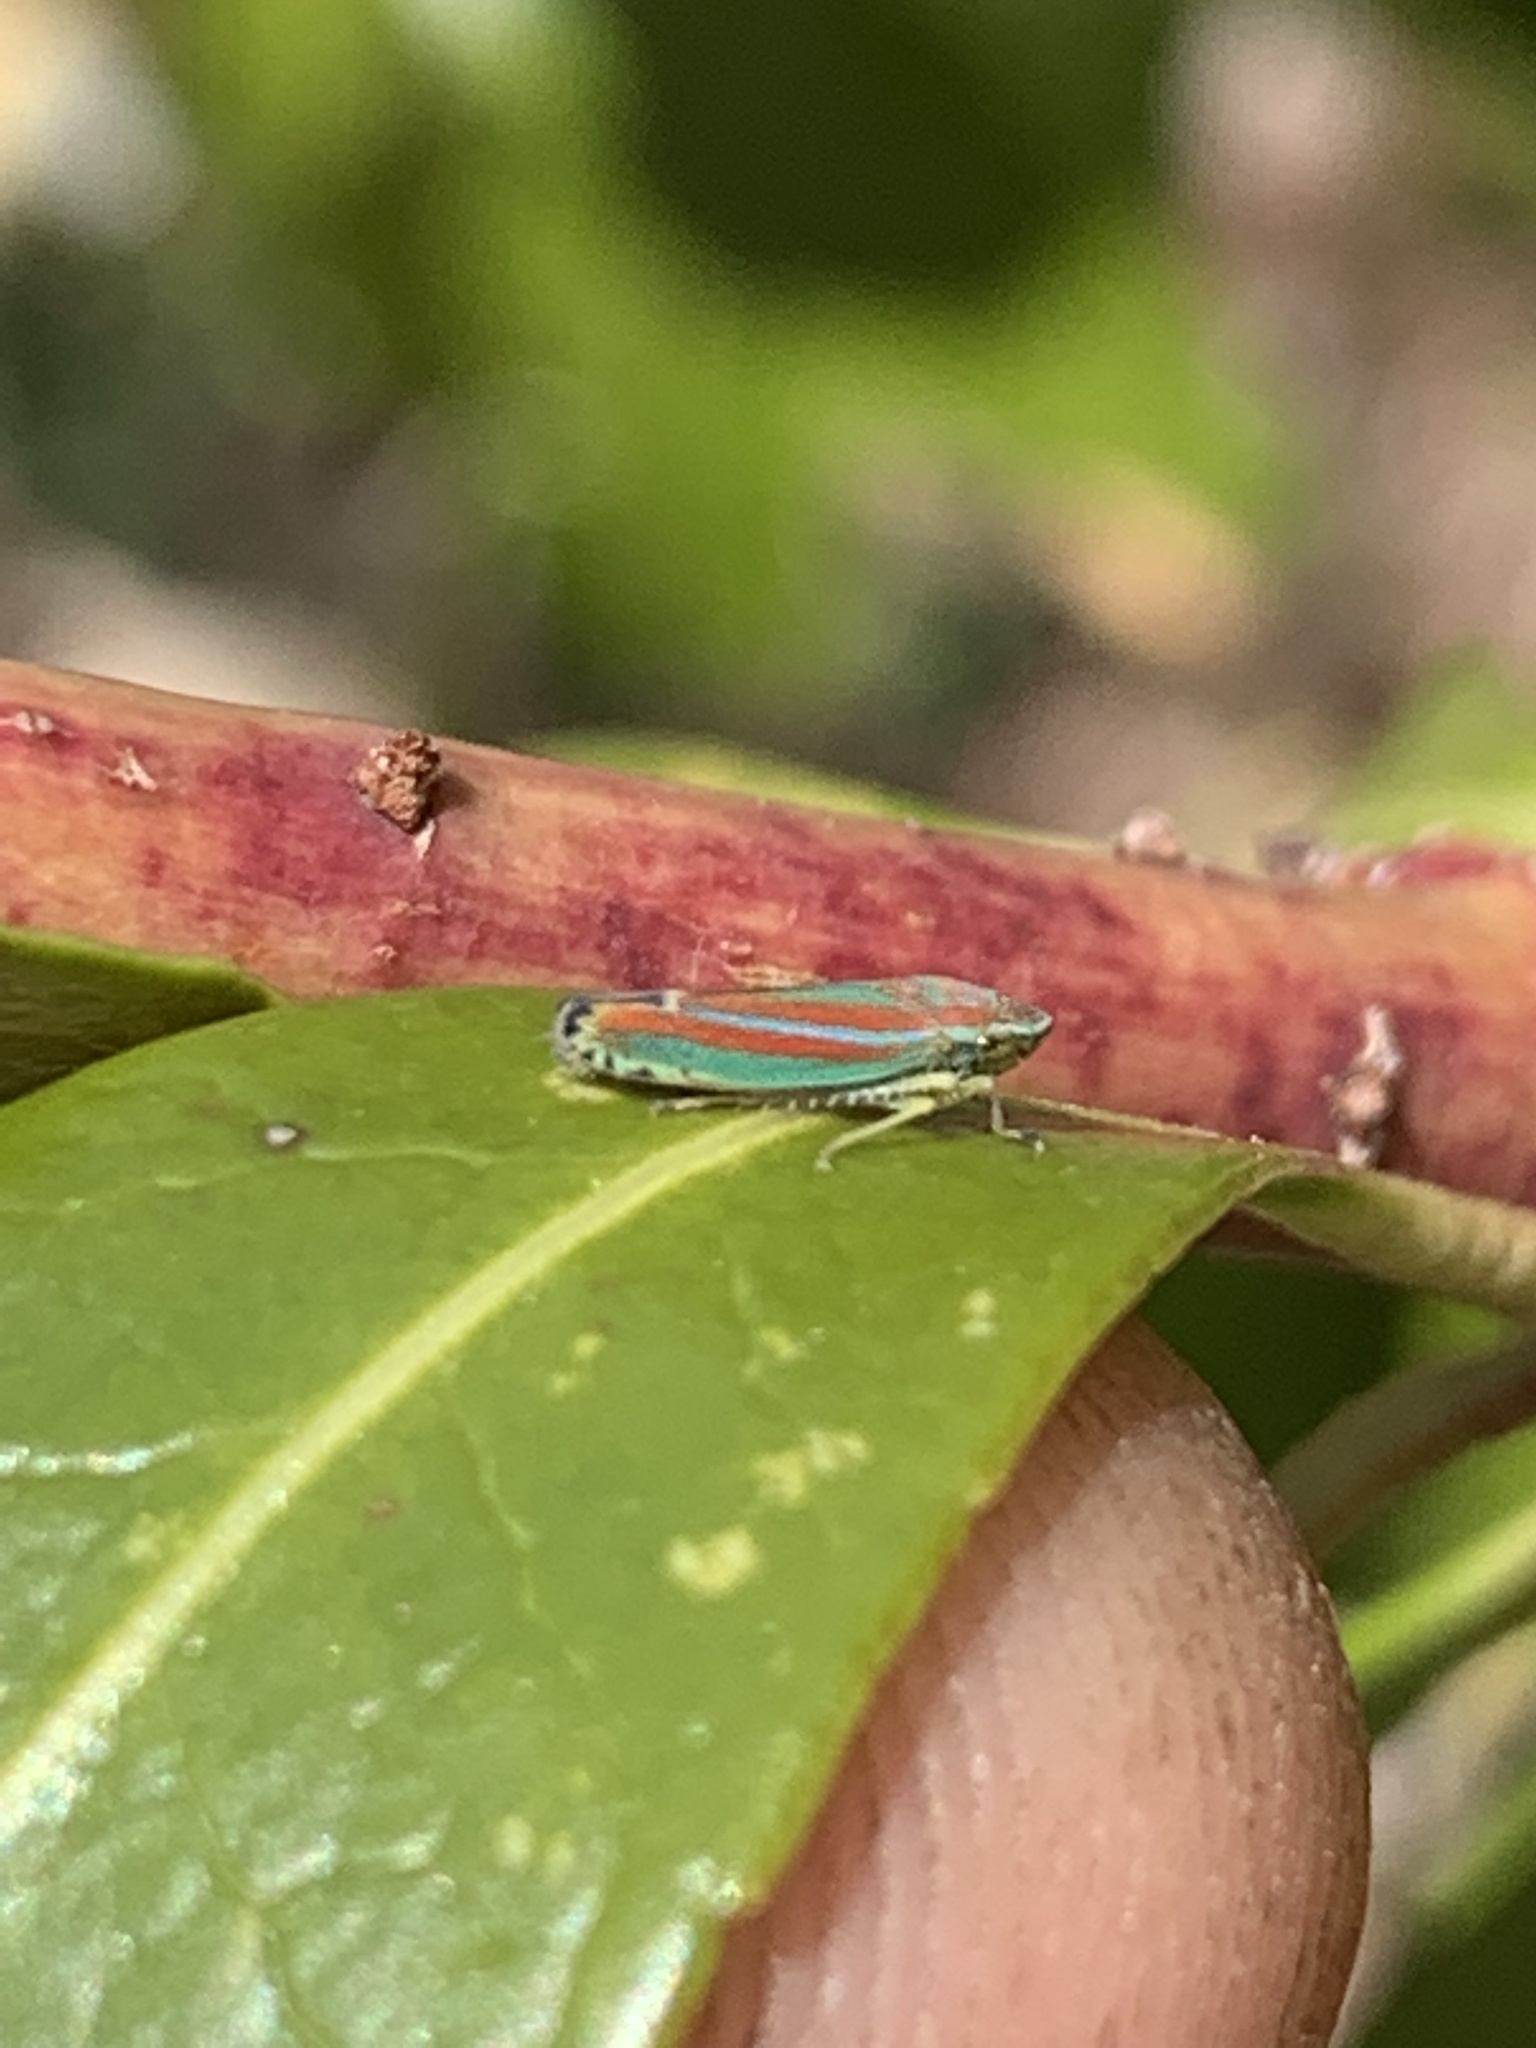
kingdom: Animalia
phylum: Arthropoda
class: Insecta
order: Hemiptera
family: Cicadellidae
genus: Graphocephala
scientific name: Graphocephala versuta
